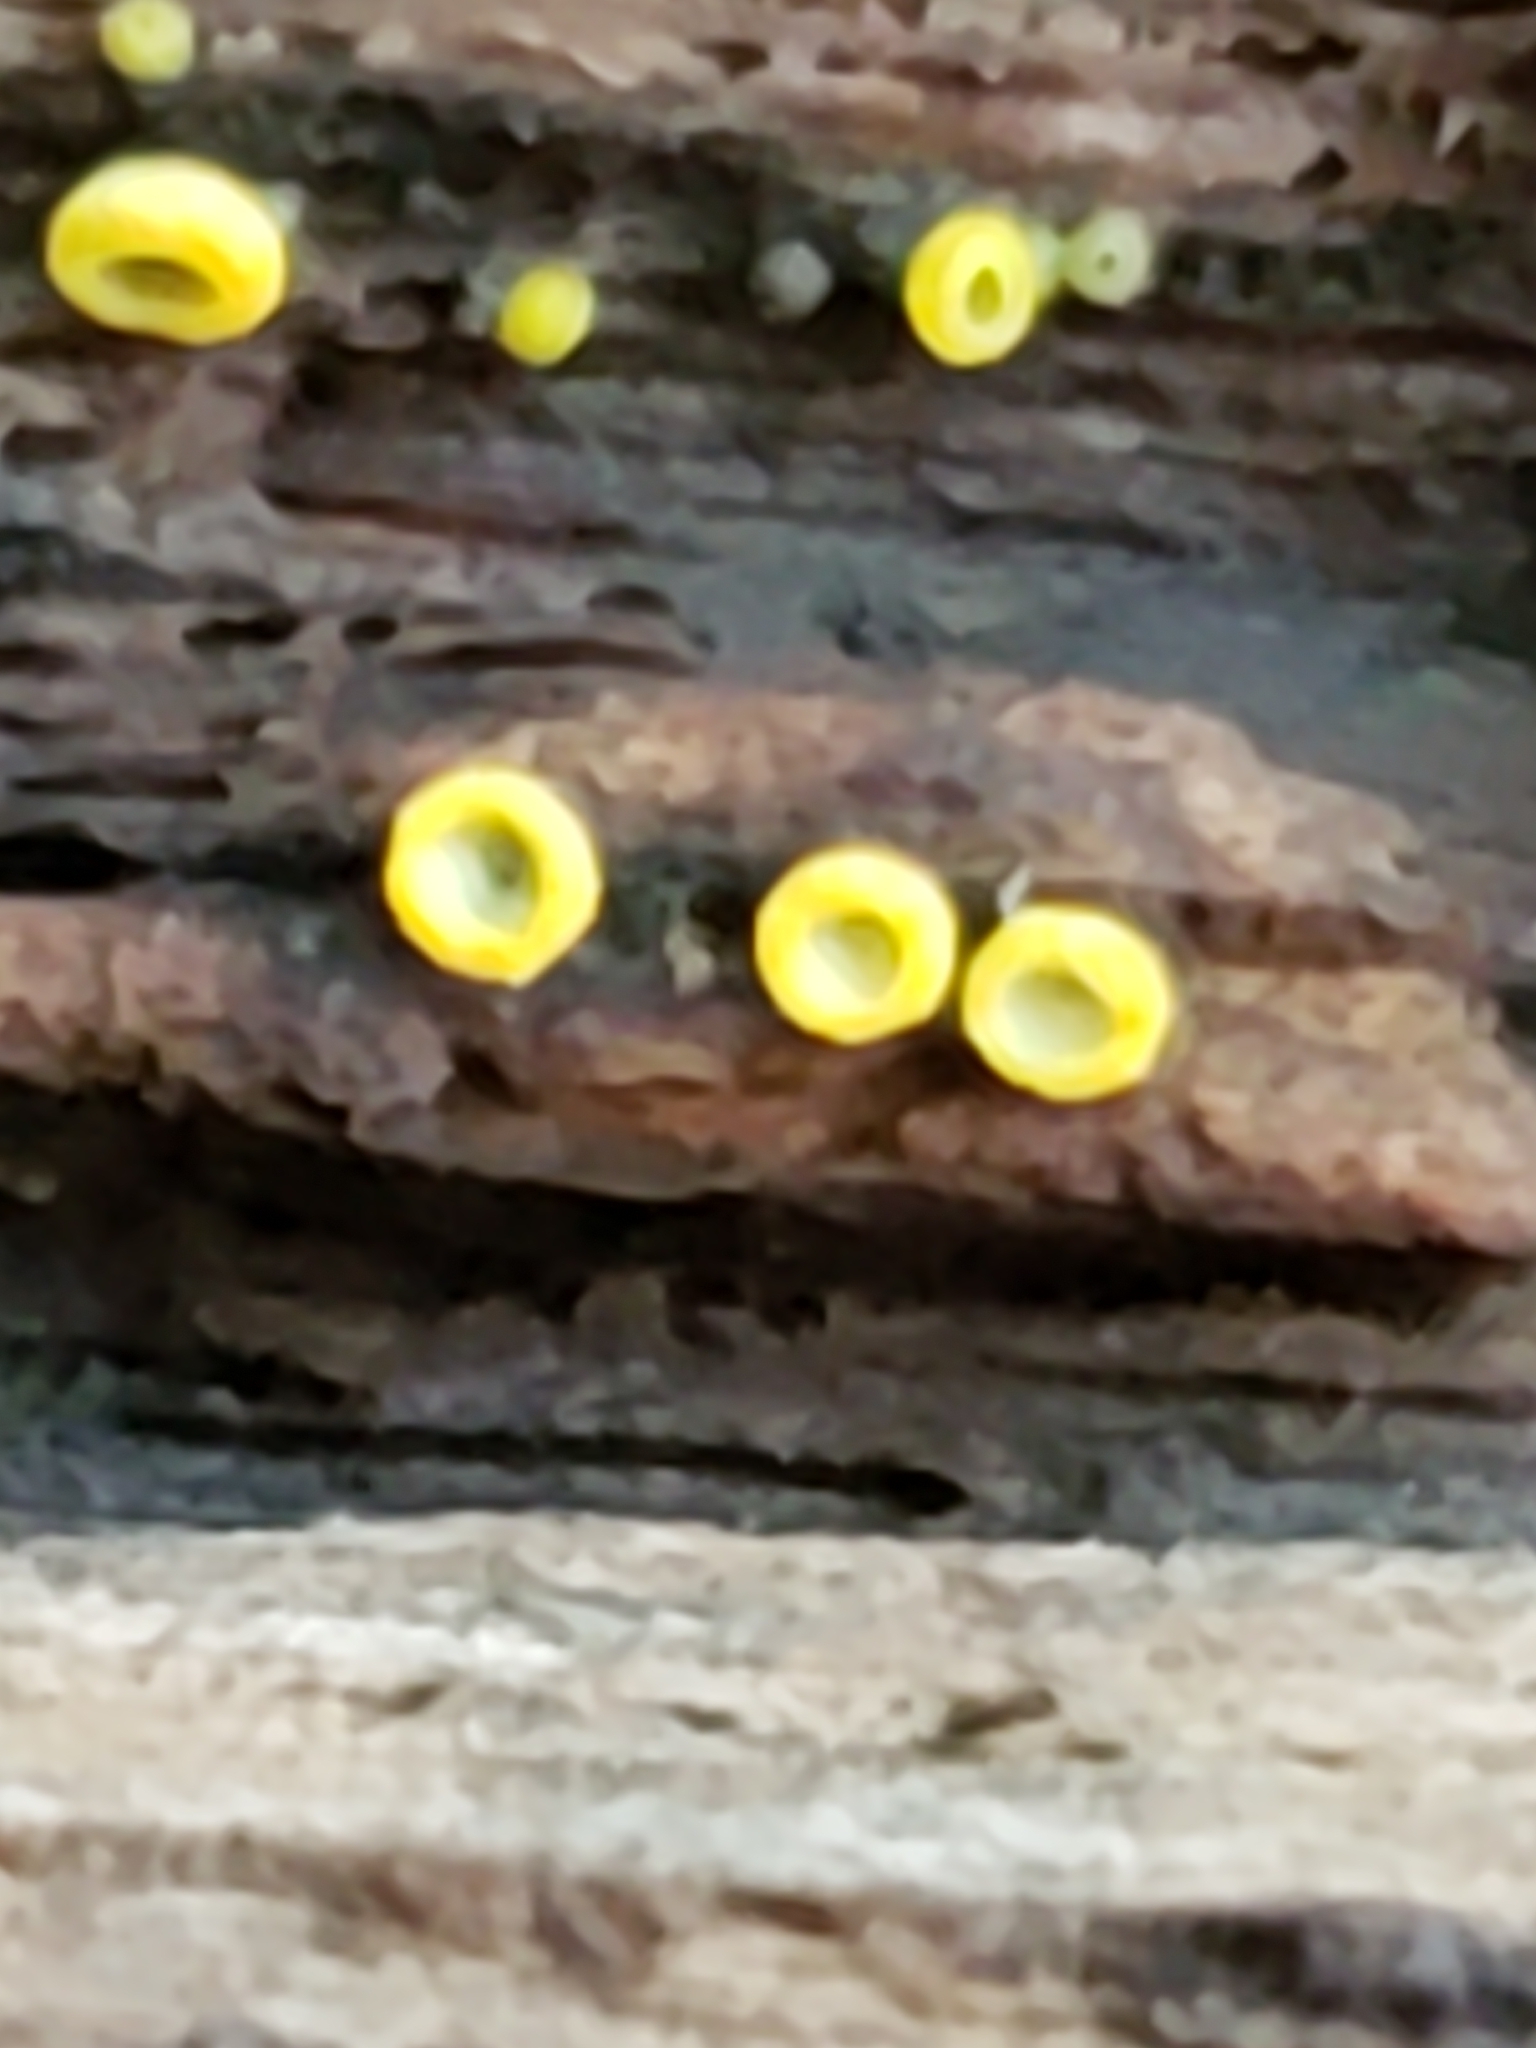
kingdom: Fungi
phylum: Ascomycota
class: Leotiomycetes
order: Helotiales
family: Chlorospleniaceae
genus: Chlorosplenium
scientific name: Chlorosplenium chlora
